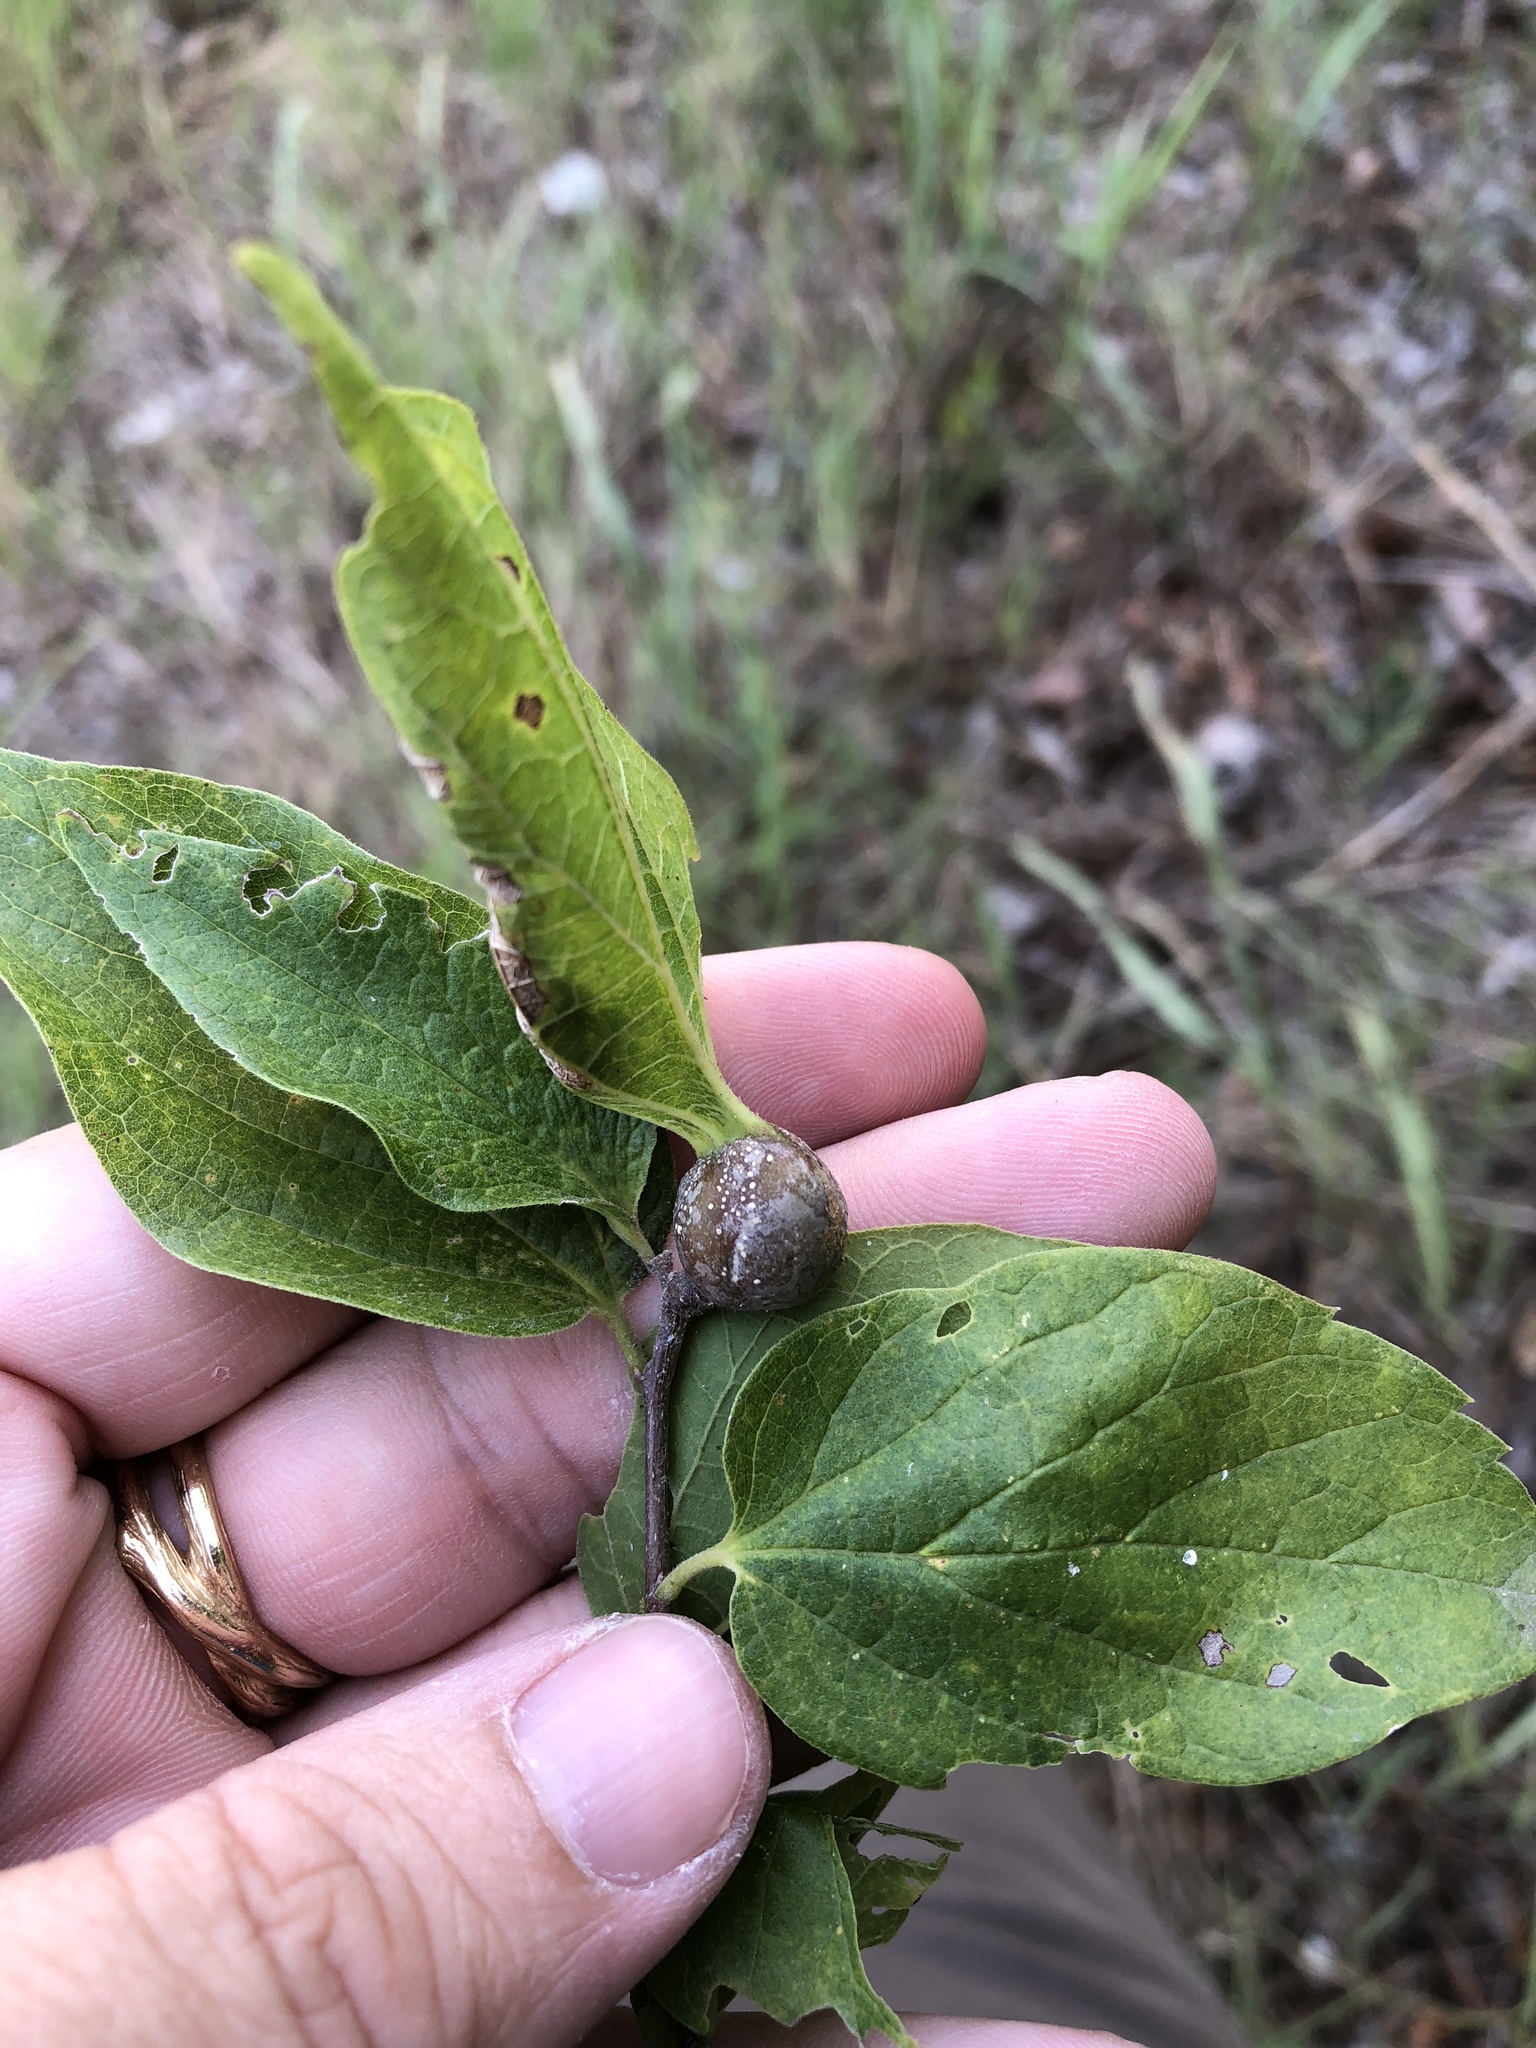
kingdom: Animalia
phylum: Arthropoda
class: Insecta
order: Hemiptera
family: Aphalaridae
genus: Pachypsylla
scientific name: Pachypsylla venusta
